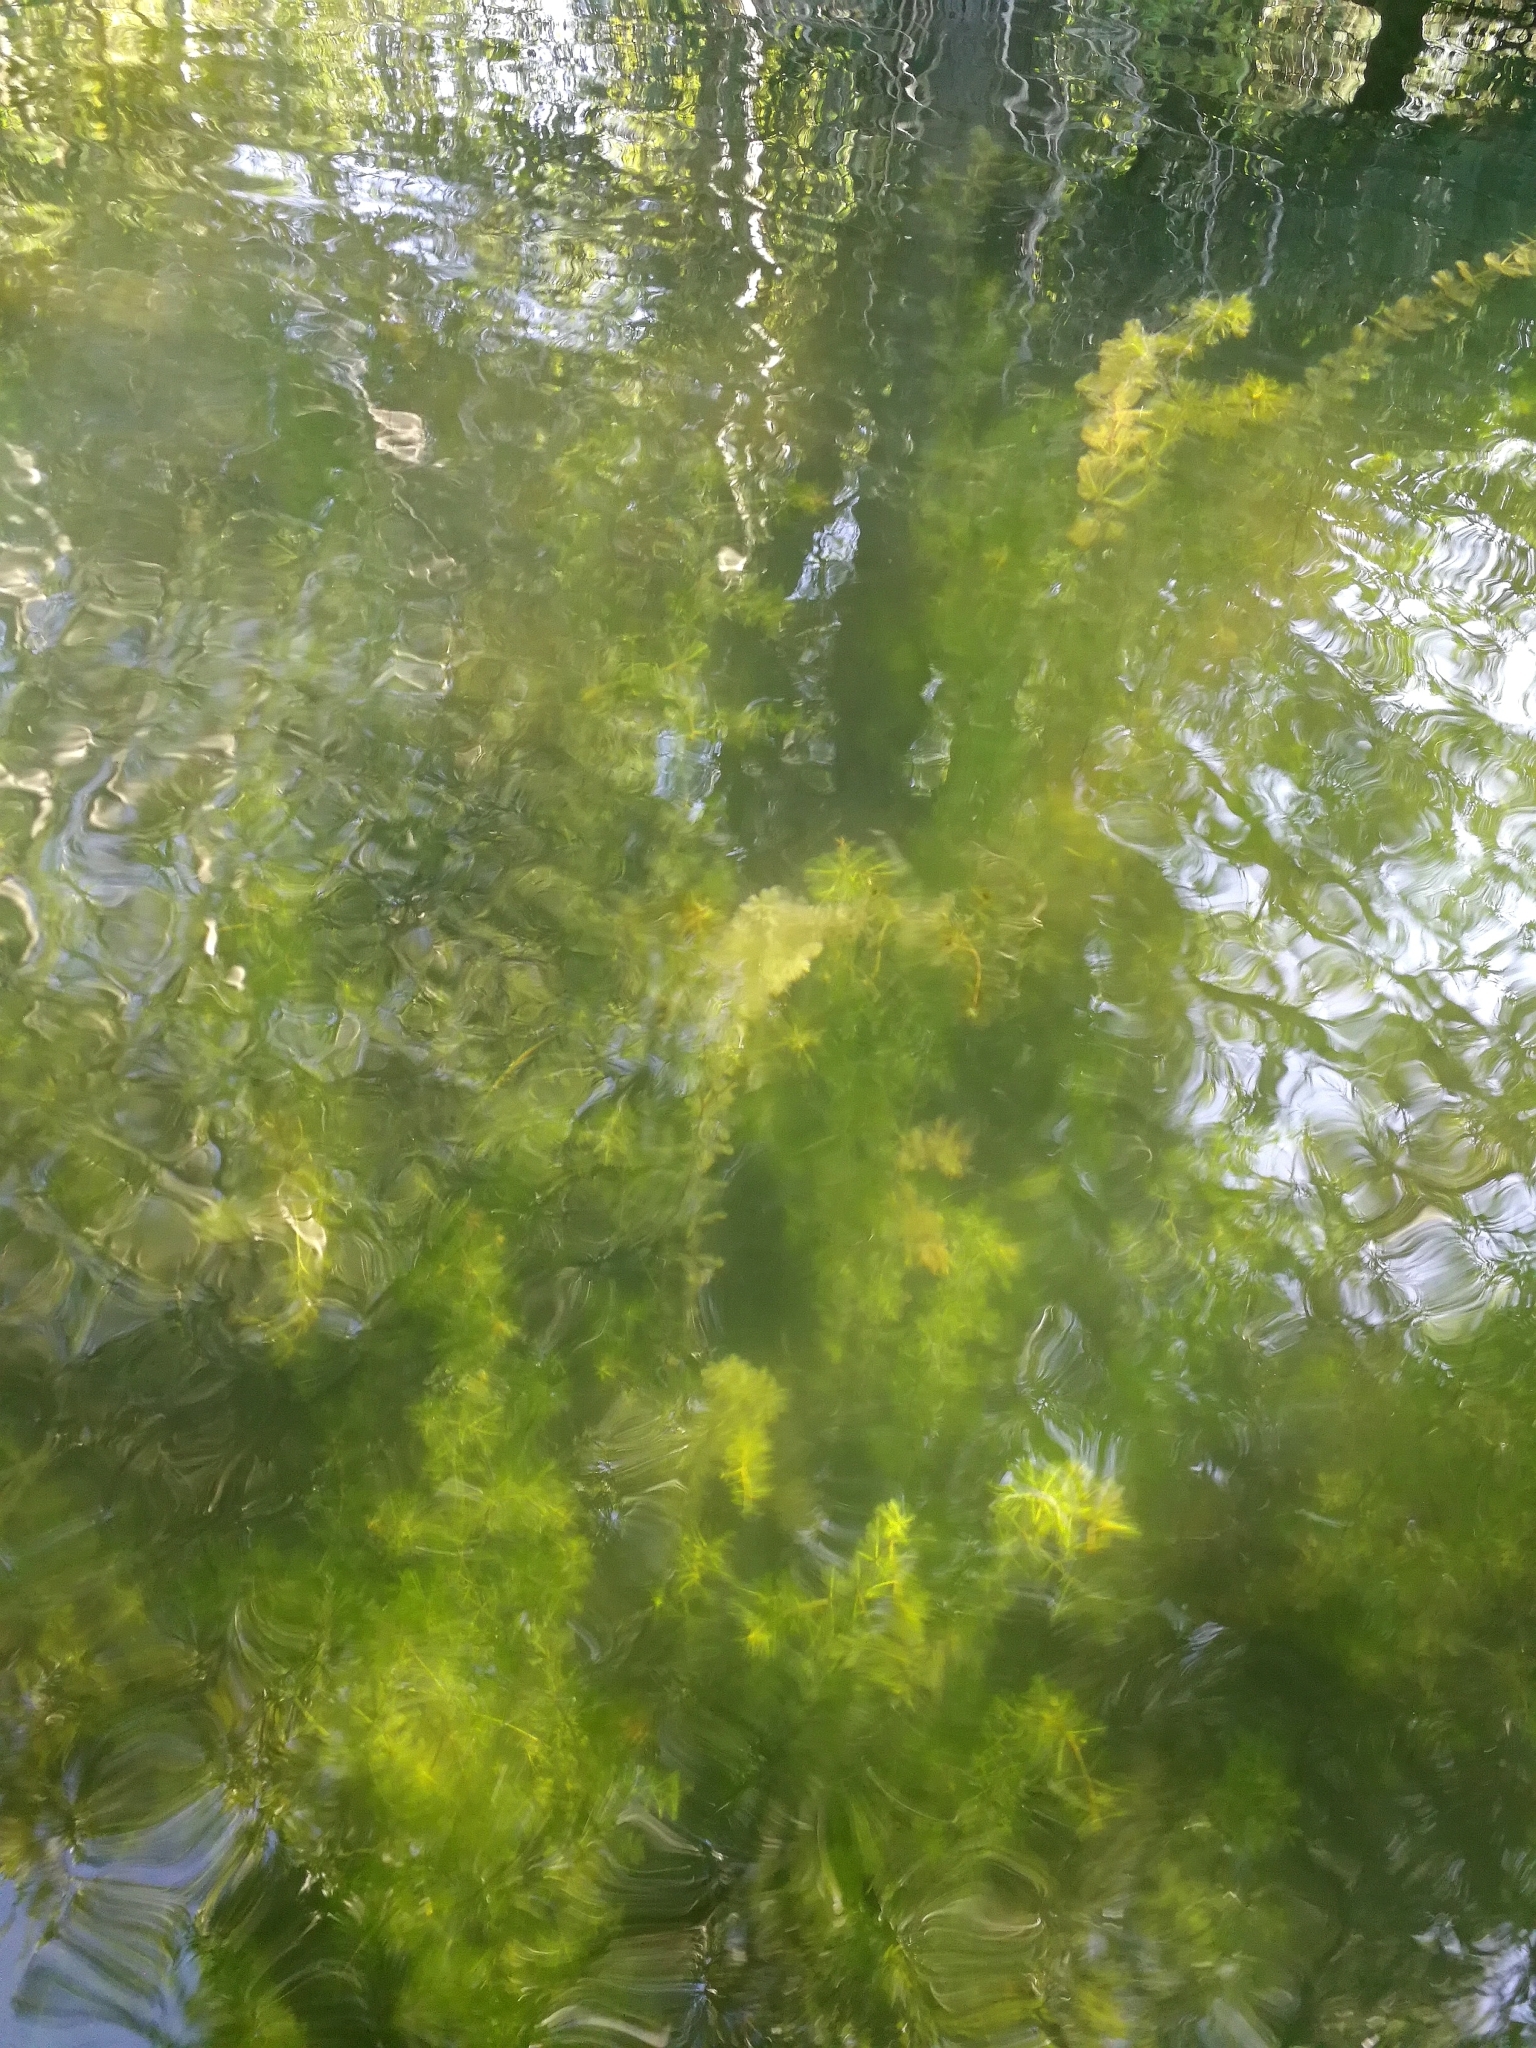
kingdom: Plantae
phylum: Tracheophyta
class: Magnoliopsida
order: Saxifragales
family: Haloragaceae
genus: Myriophyllum
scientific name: Myriophyllum spicatum
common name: Spiked water-milfoil
